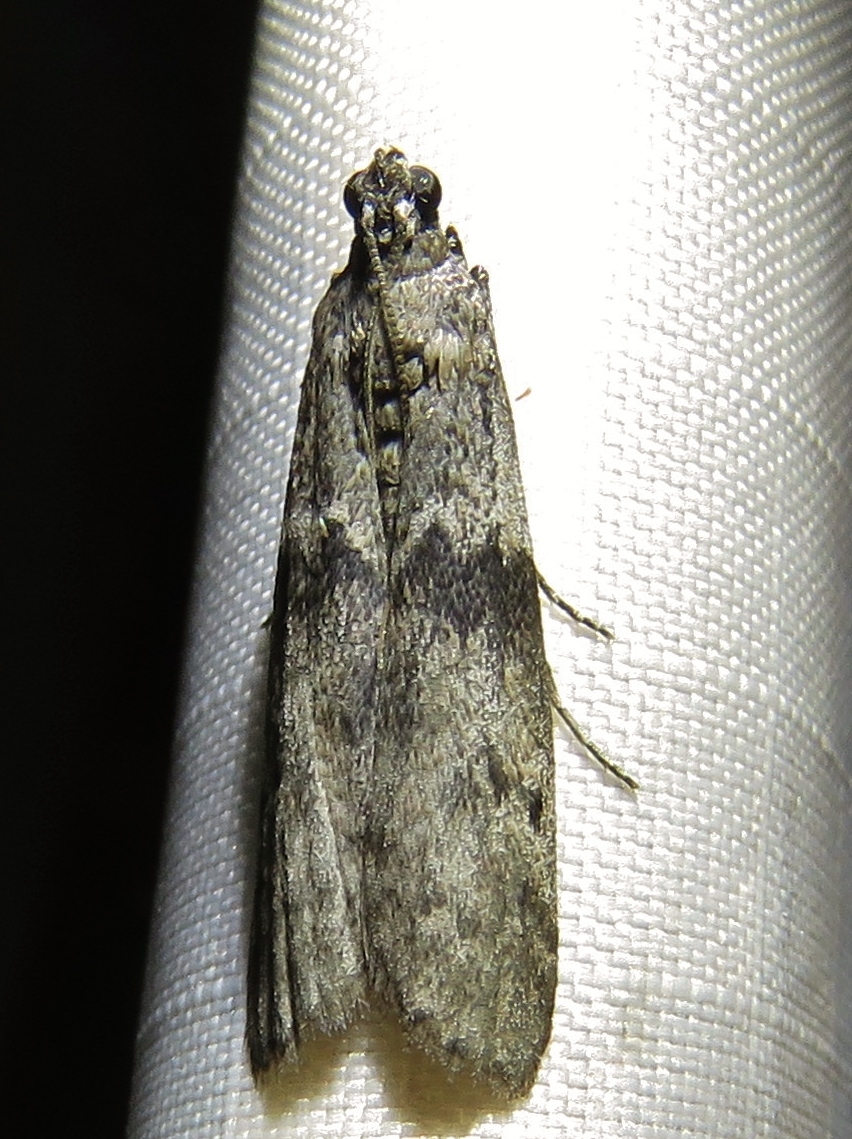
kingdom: Animalia
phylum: Arthropoda
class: Insecta
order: Lepidoptera
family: Pyralidae
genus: Ephestia
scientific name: Ephestia kuehniella
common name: Mediterranean flour moth
